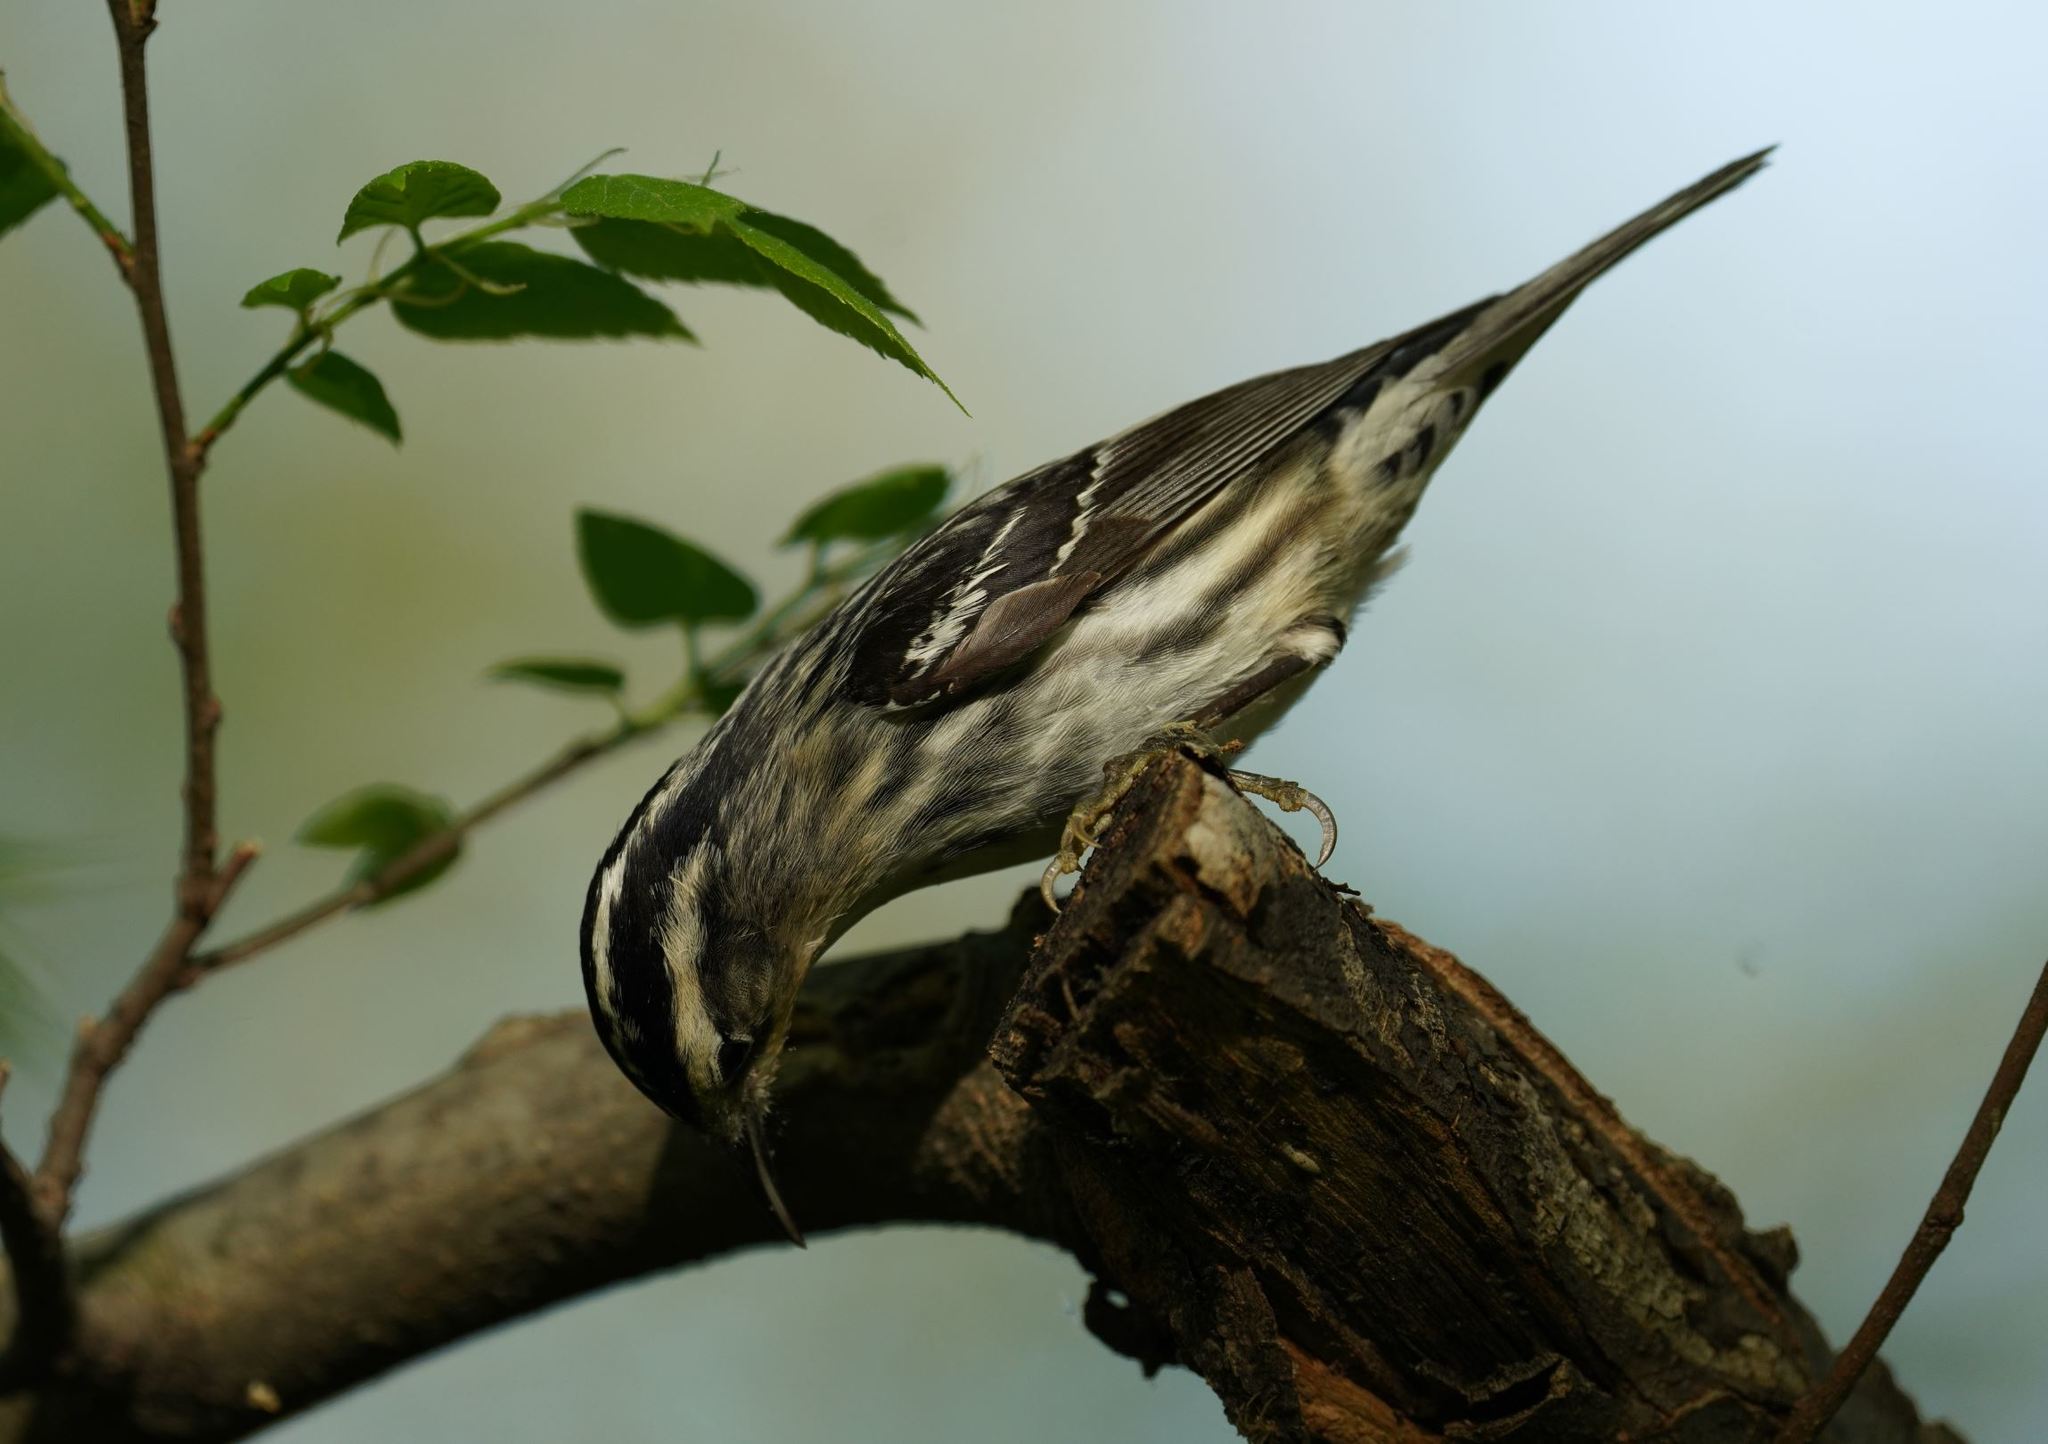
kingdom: Animalia
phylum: Chordata
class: Aves
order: Passeriformes
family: Parulidae
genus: Mniotilta
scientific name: Mniotilta varia
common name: Black-and-white warbler
